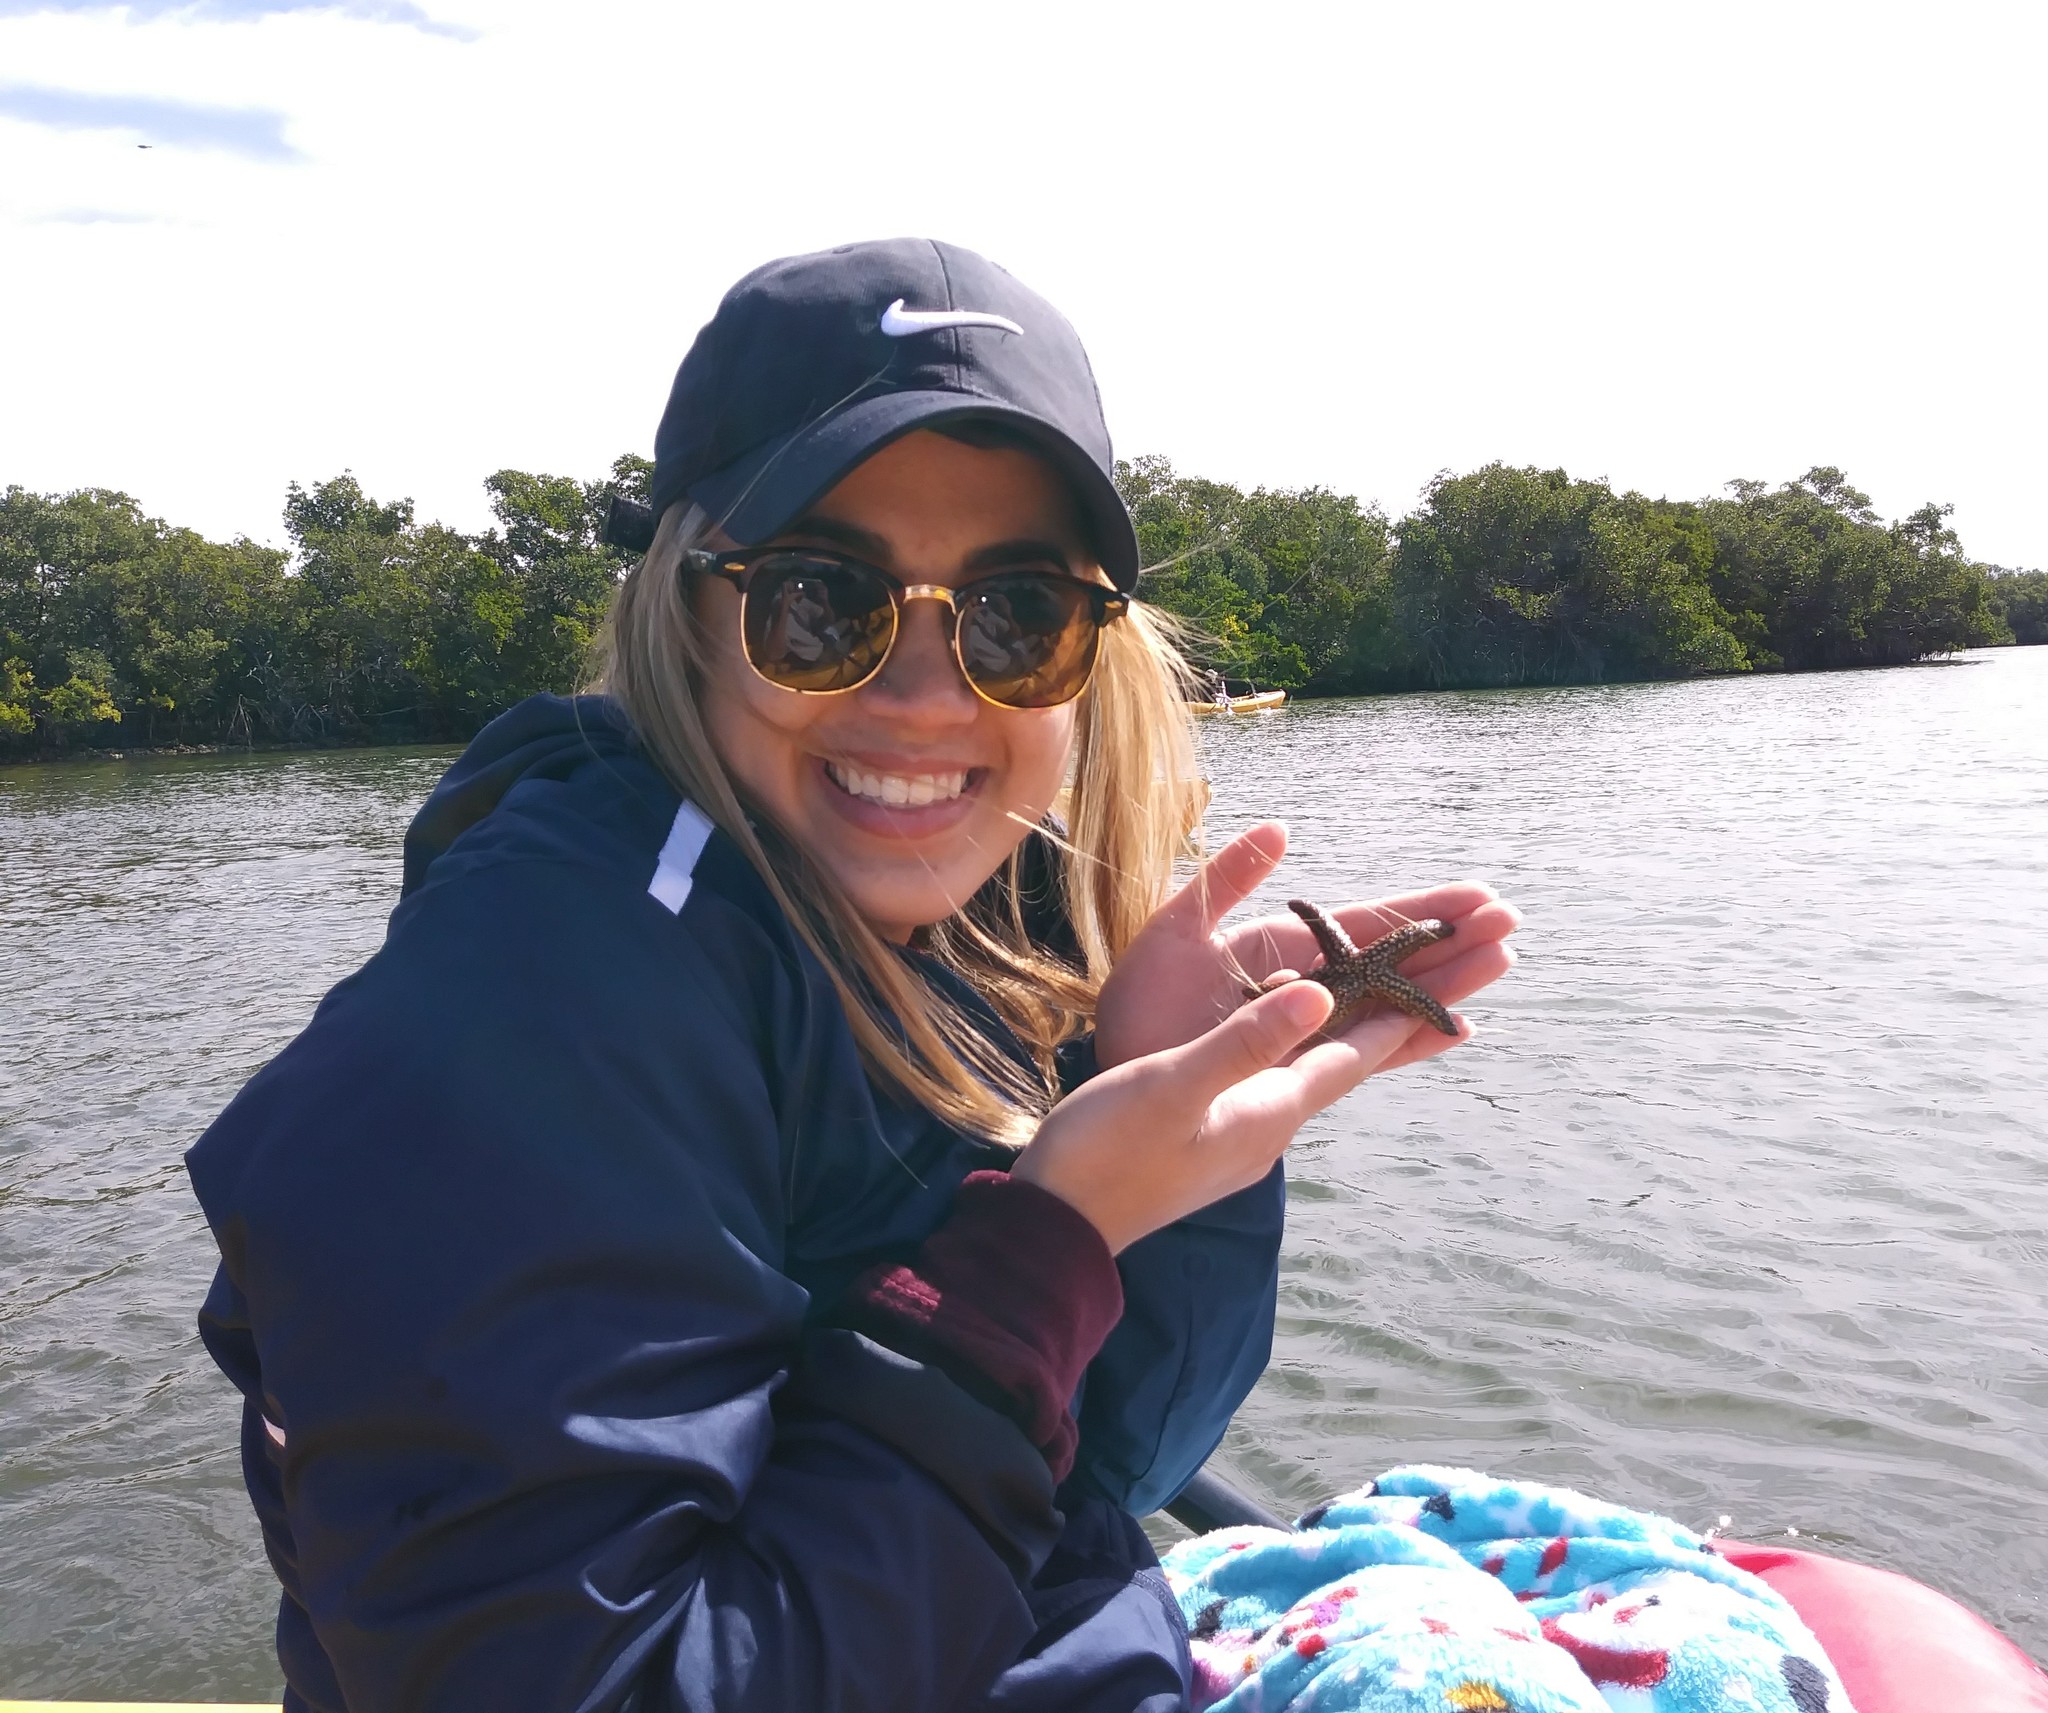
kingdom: Animalia
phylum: Echinodermata
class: Asteroidea
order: Spinulosida
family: Echinasteridae
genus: Echinaster
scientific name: Echinaster sentus
